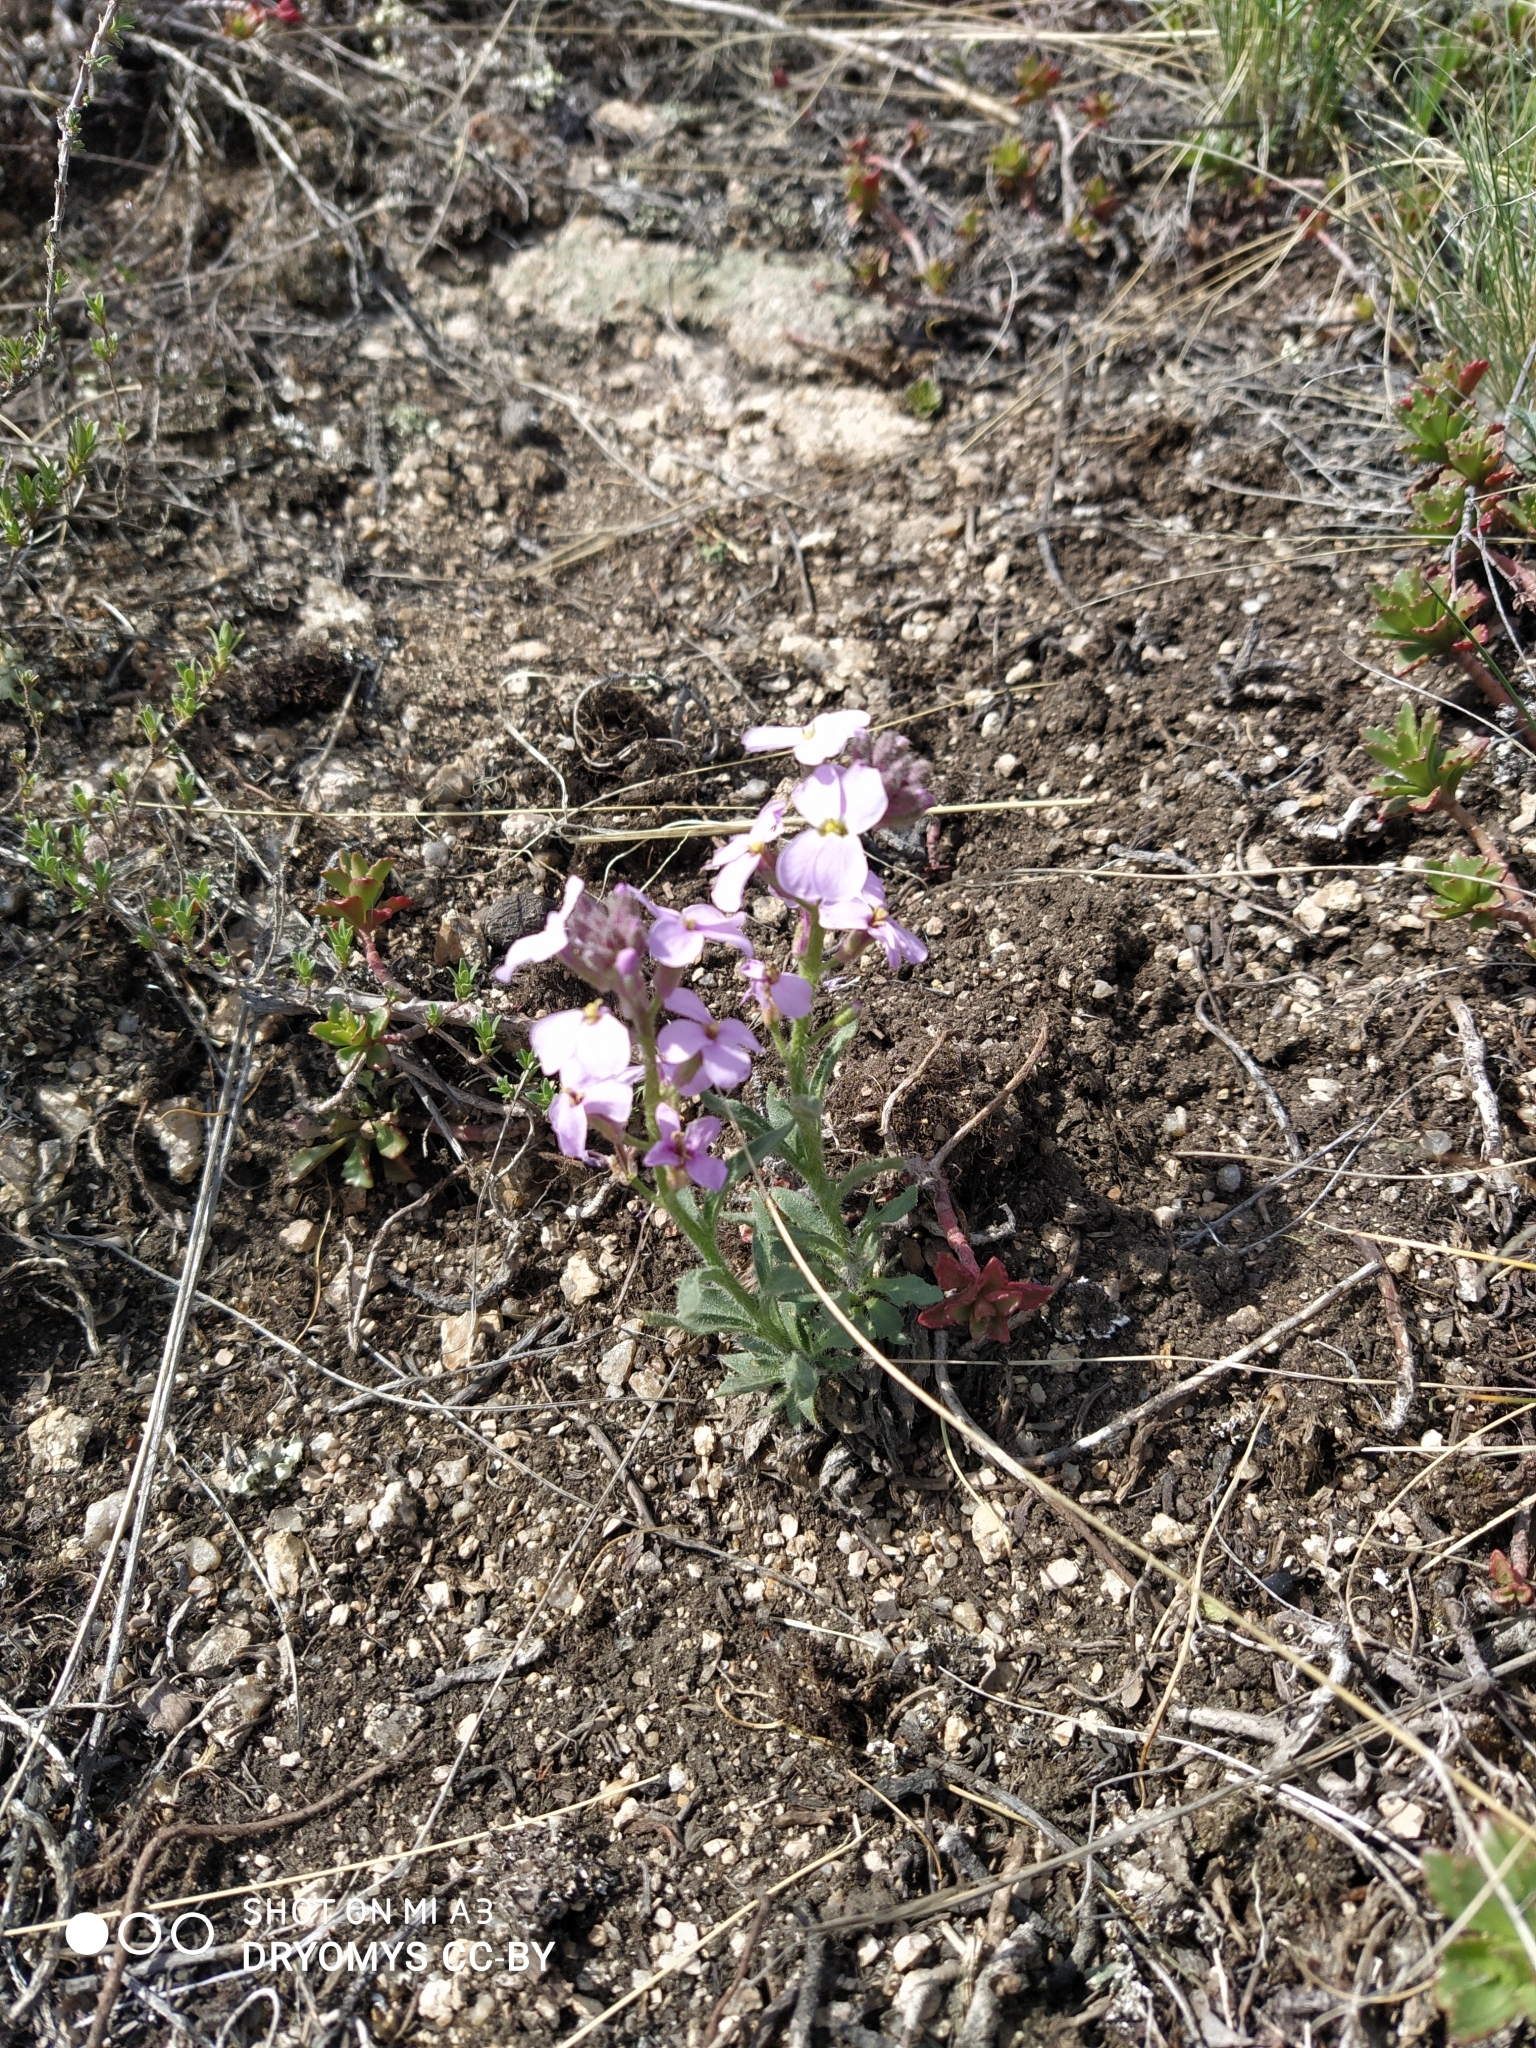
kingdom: Plantae
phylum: Tracheophyta
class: Magnoliopsida
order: Brassicales
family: Brassicaceae
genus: Clausia
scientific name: Clausia aprica
